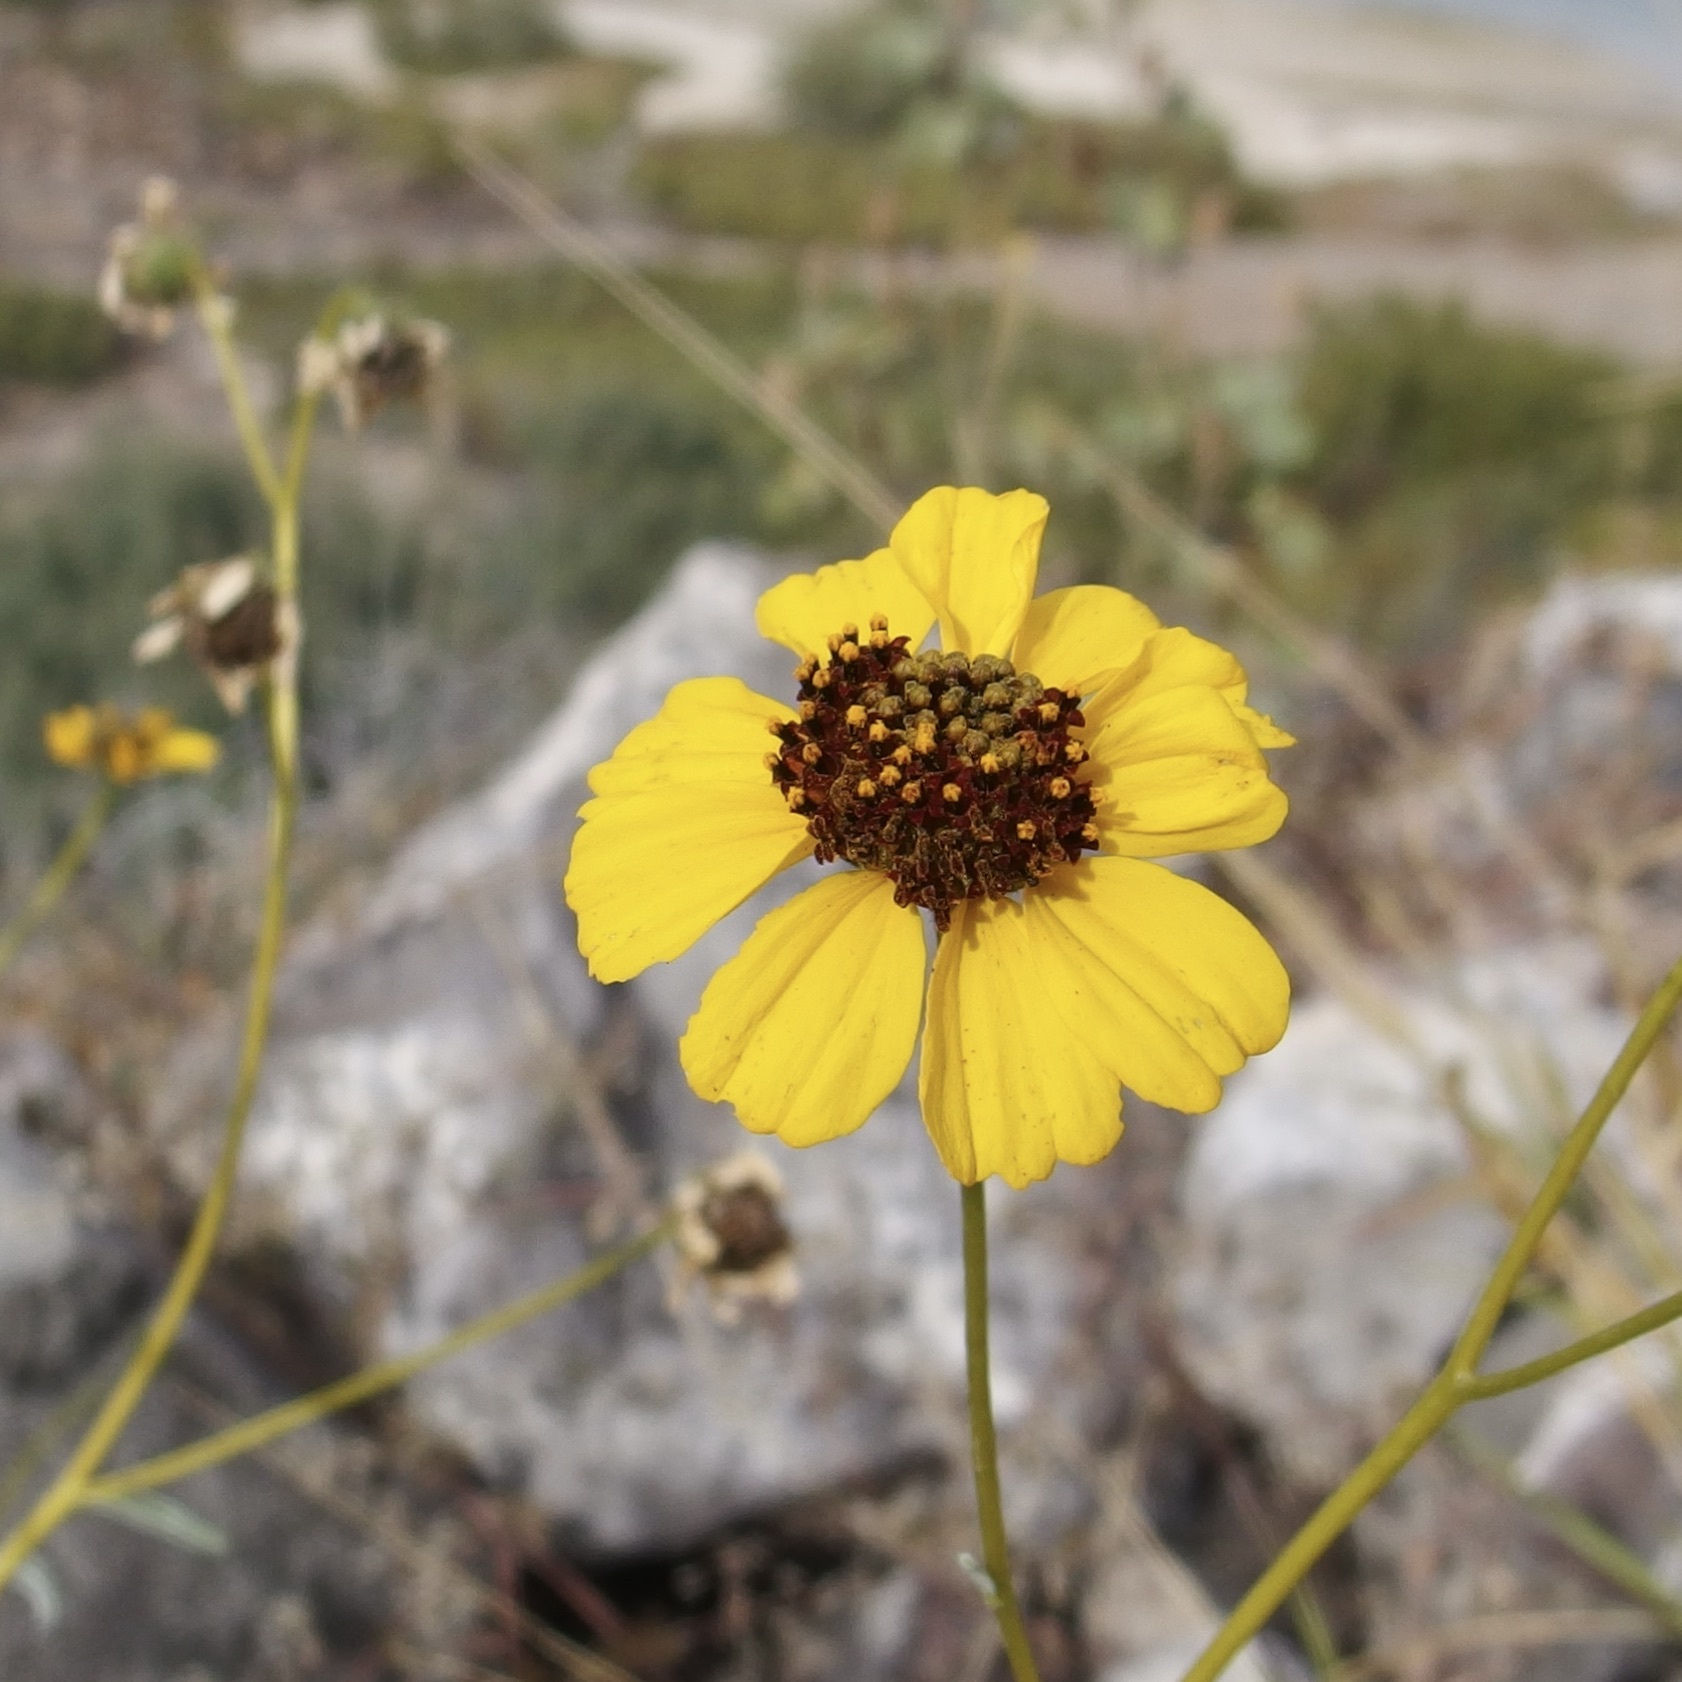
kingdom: Plantae
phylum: Tracheophyta
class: Magnoliopsida
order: Asterales
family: Asteraceae
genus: Encelia
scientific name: Encelia farinosa
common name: Brittlebush
